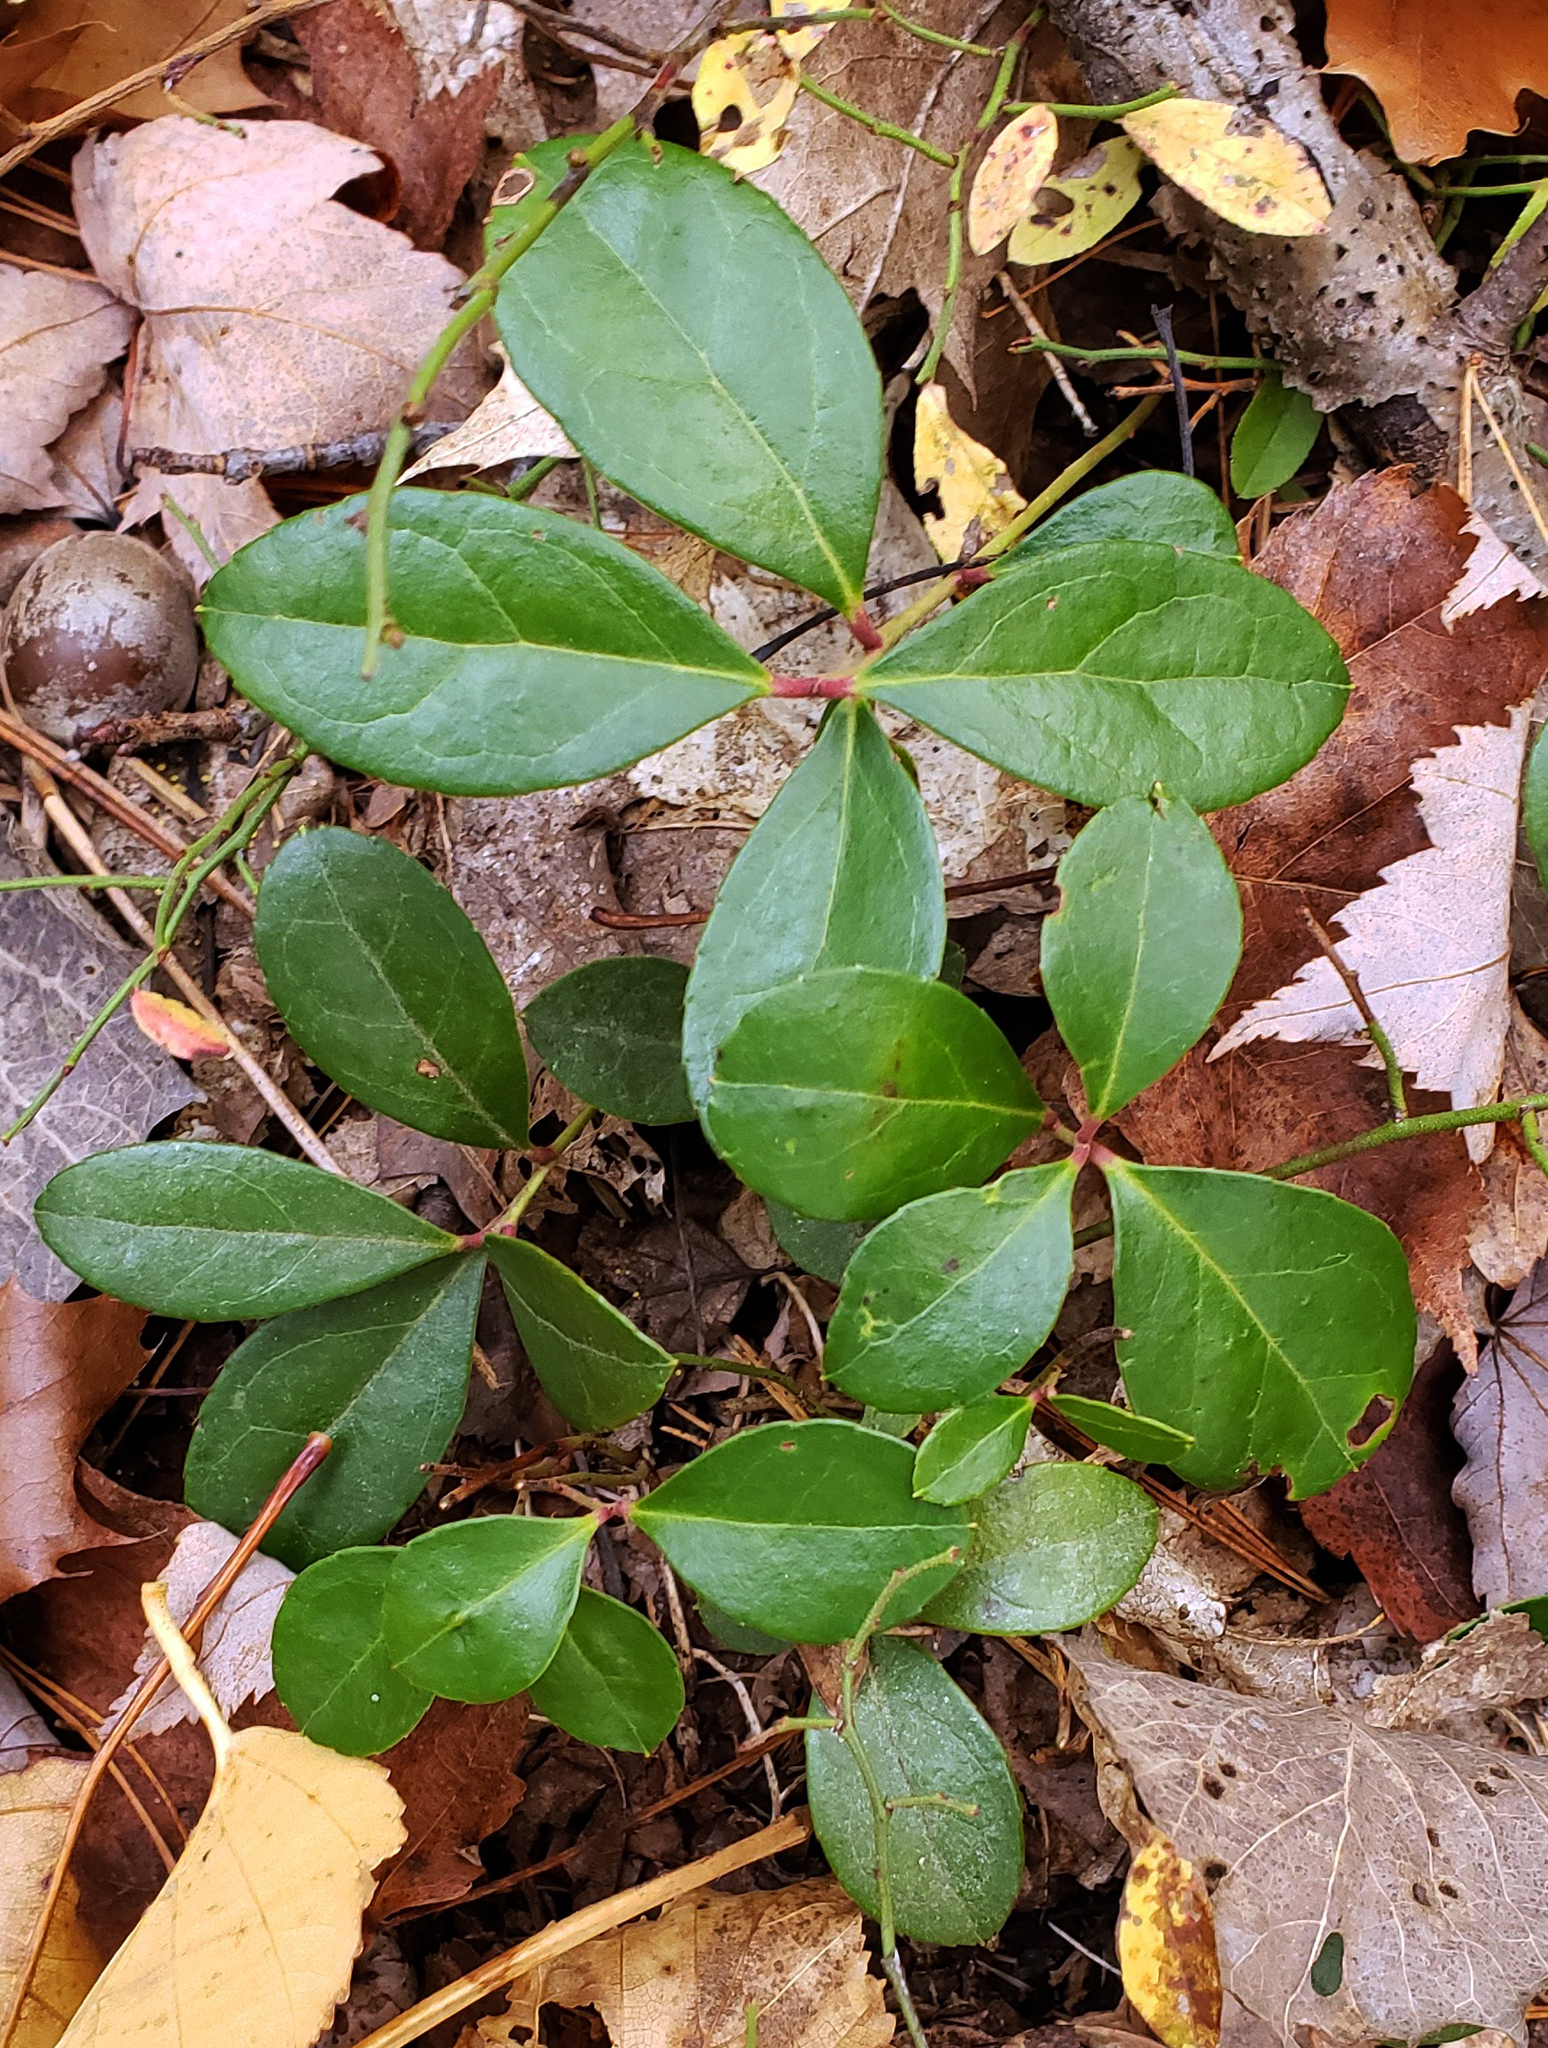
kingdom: Plantae
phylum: Tracheophyta
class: Magnoliopsida
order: Ericales
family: Ericaceae
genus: Gaultheria
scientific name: Gaultheria procumbens
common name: Checkerberry
